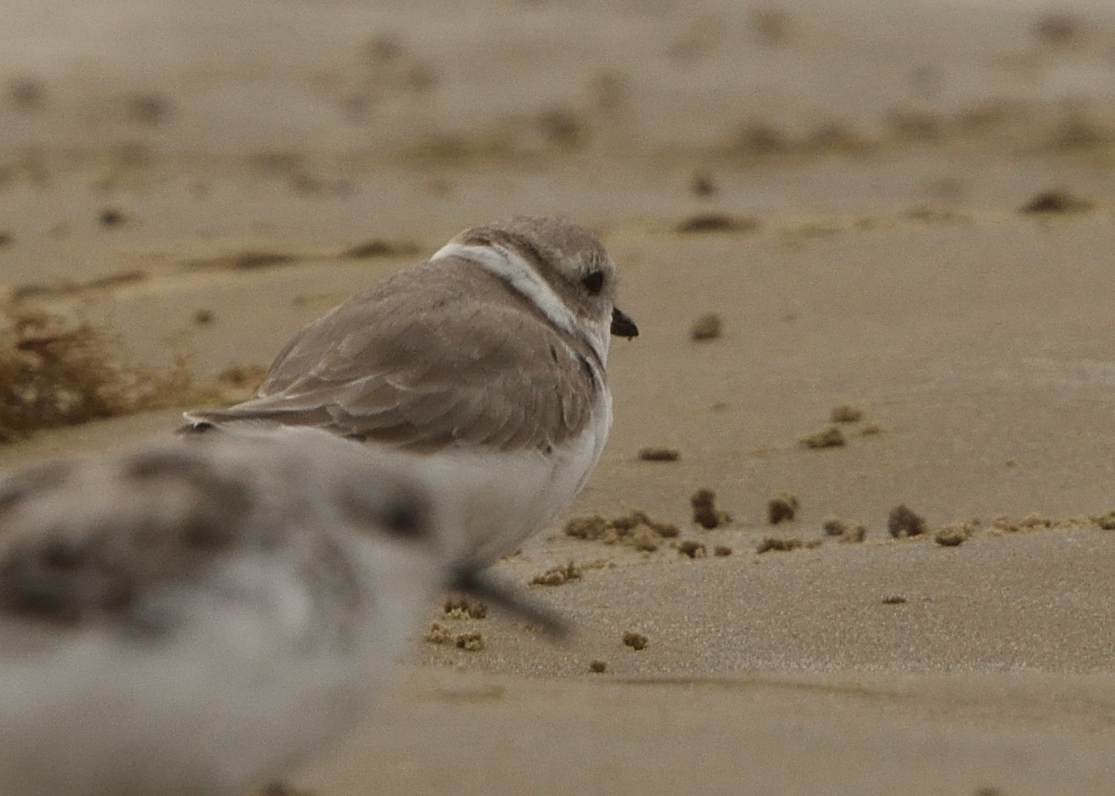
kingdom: Animalia
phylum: Chordata
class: Aves
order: Charadriiformes
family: Charadriidae
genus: Anarhynchus
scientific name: Anarhynchus
